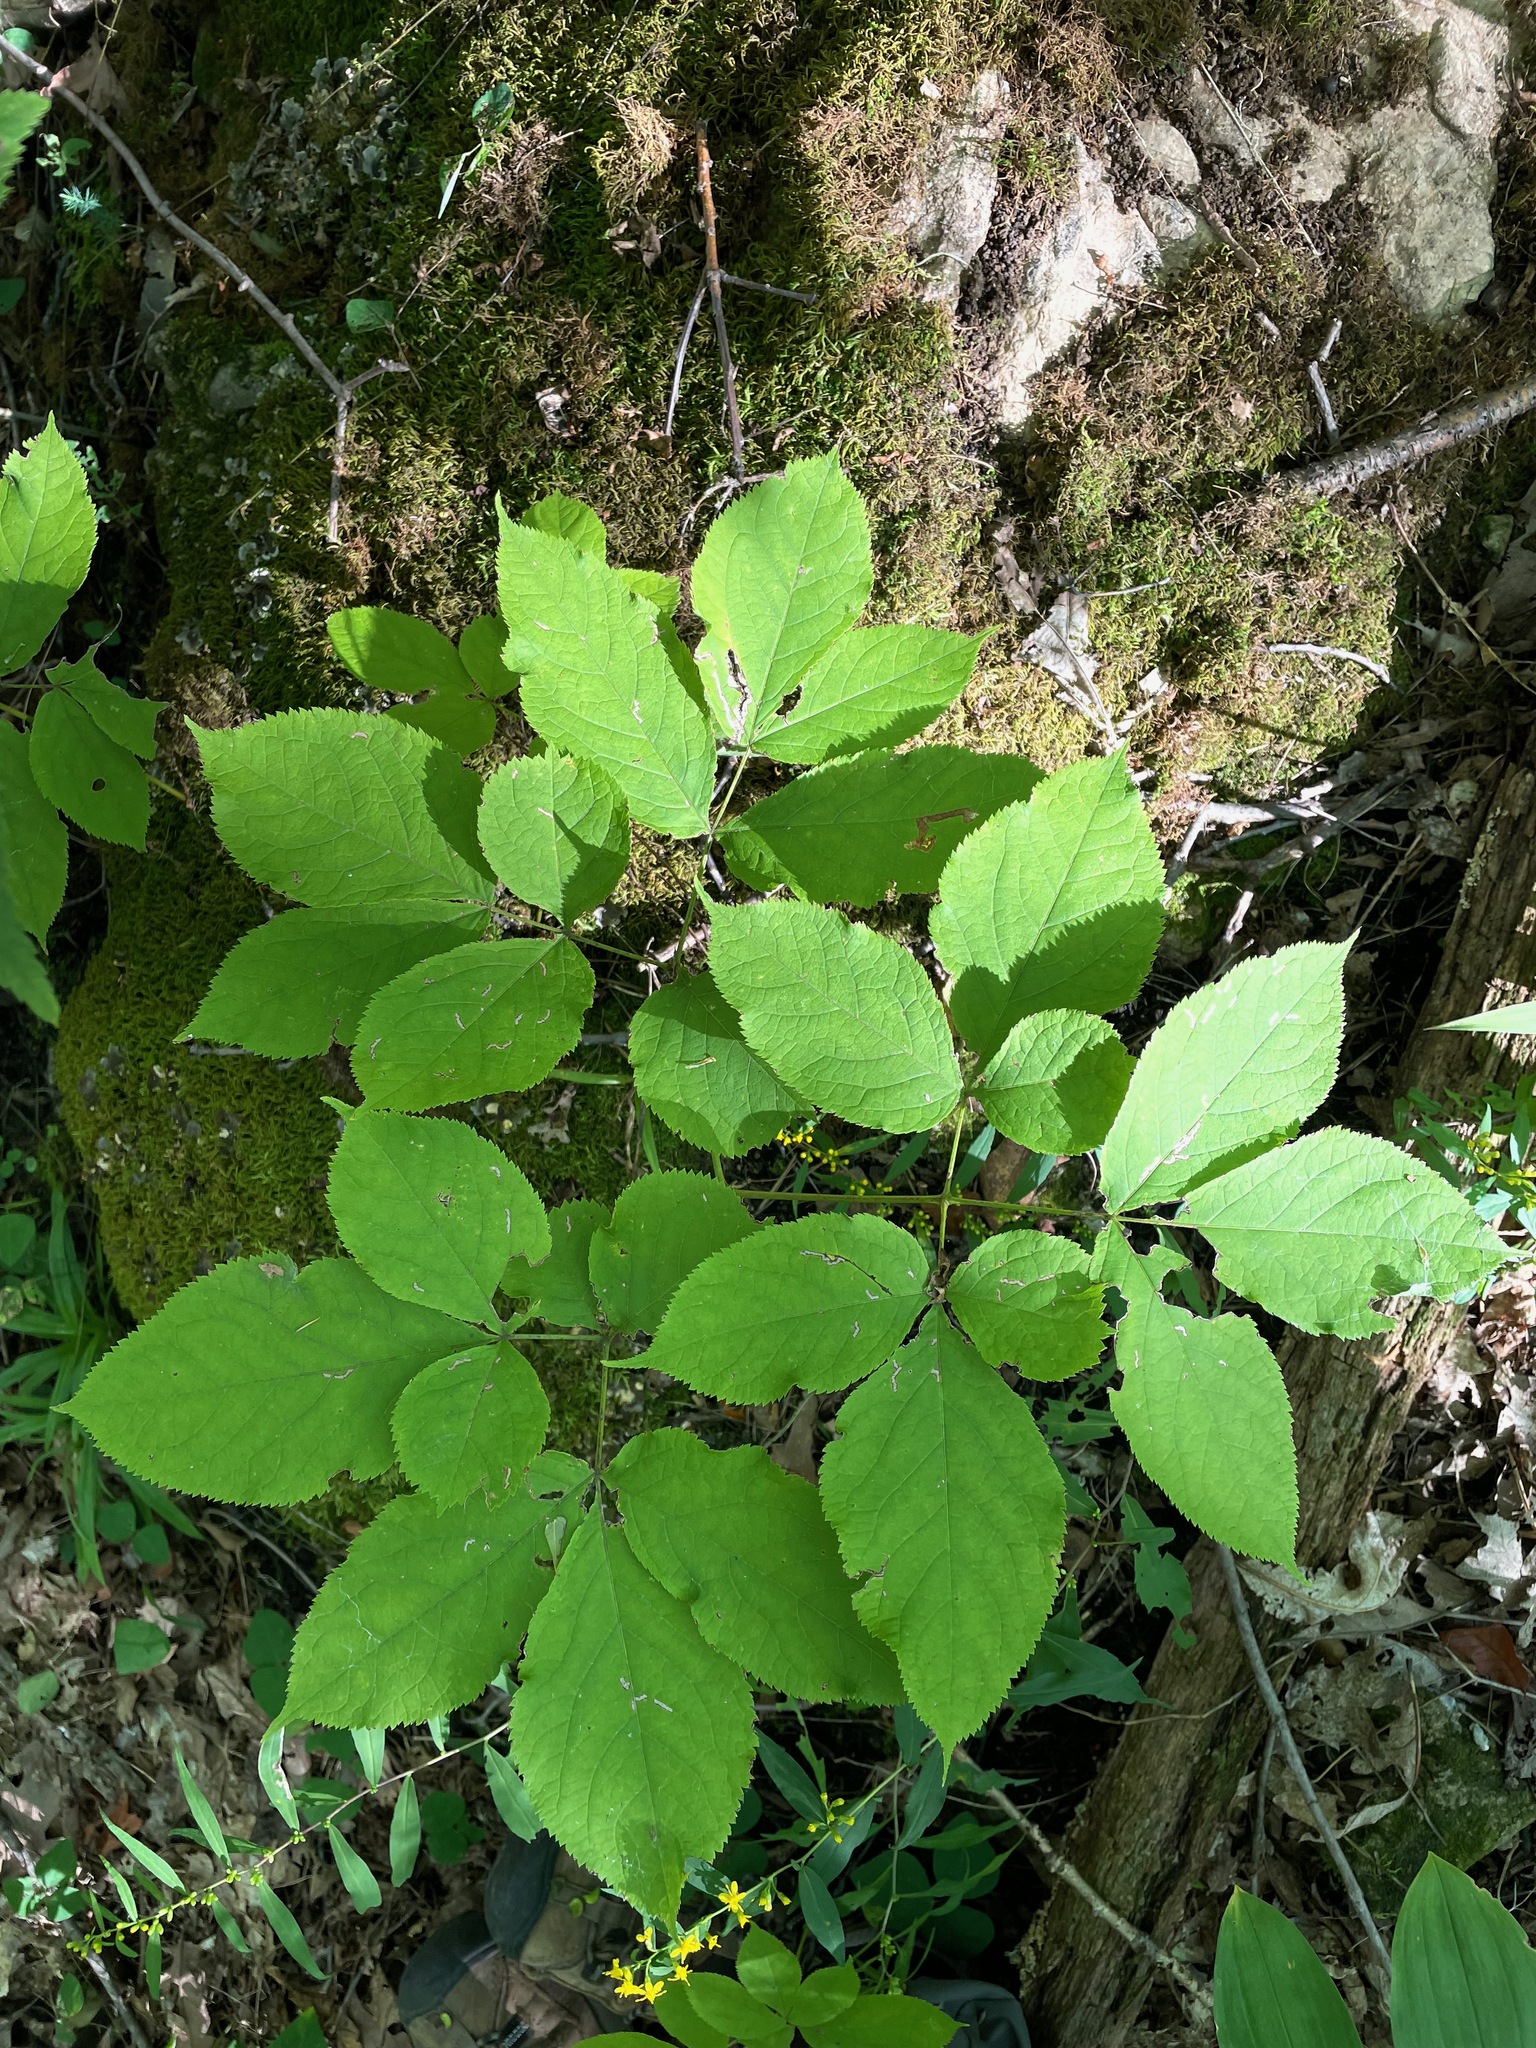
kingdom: Plantae
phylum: Tracheophyta
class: Magnoliopsida
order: Apiales
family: Araliaceae
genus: Aralia
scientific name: Aralia nudicaulis
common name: Wild sarsaparilla
